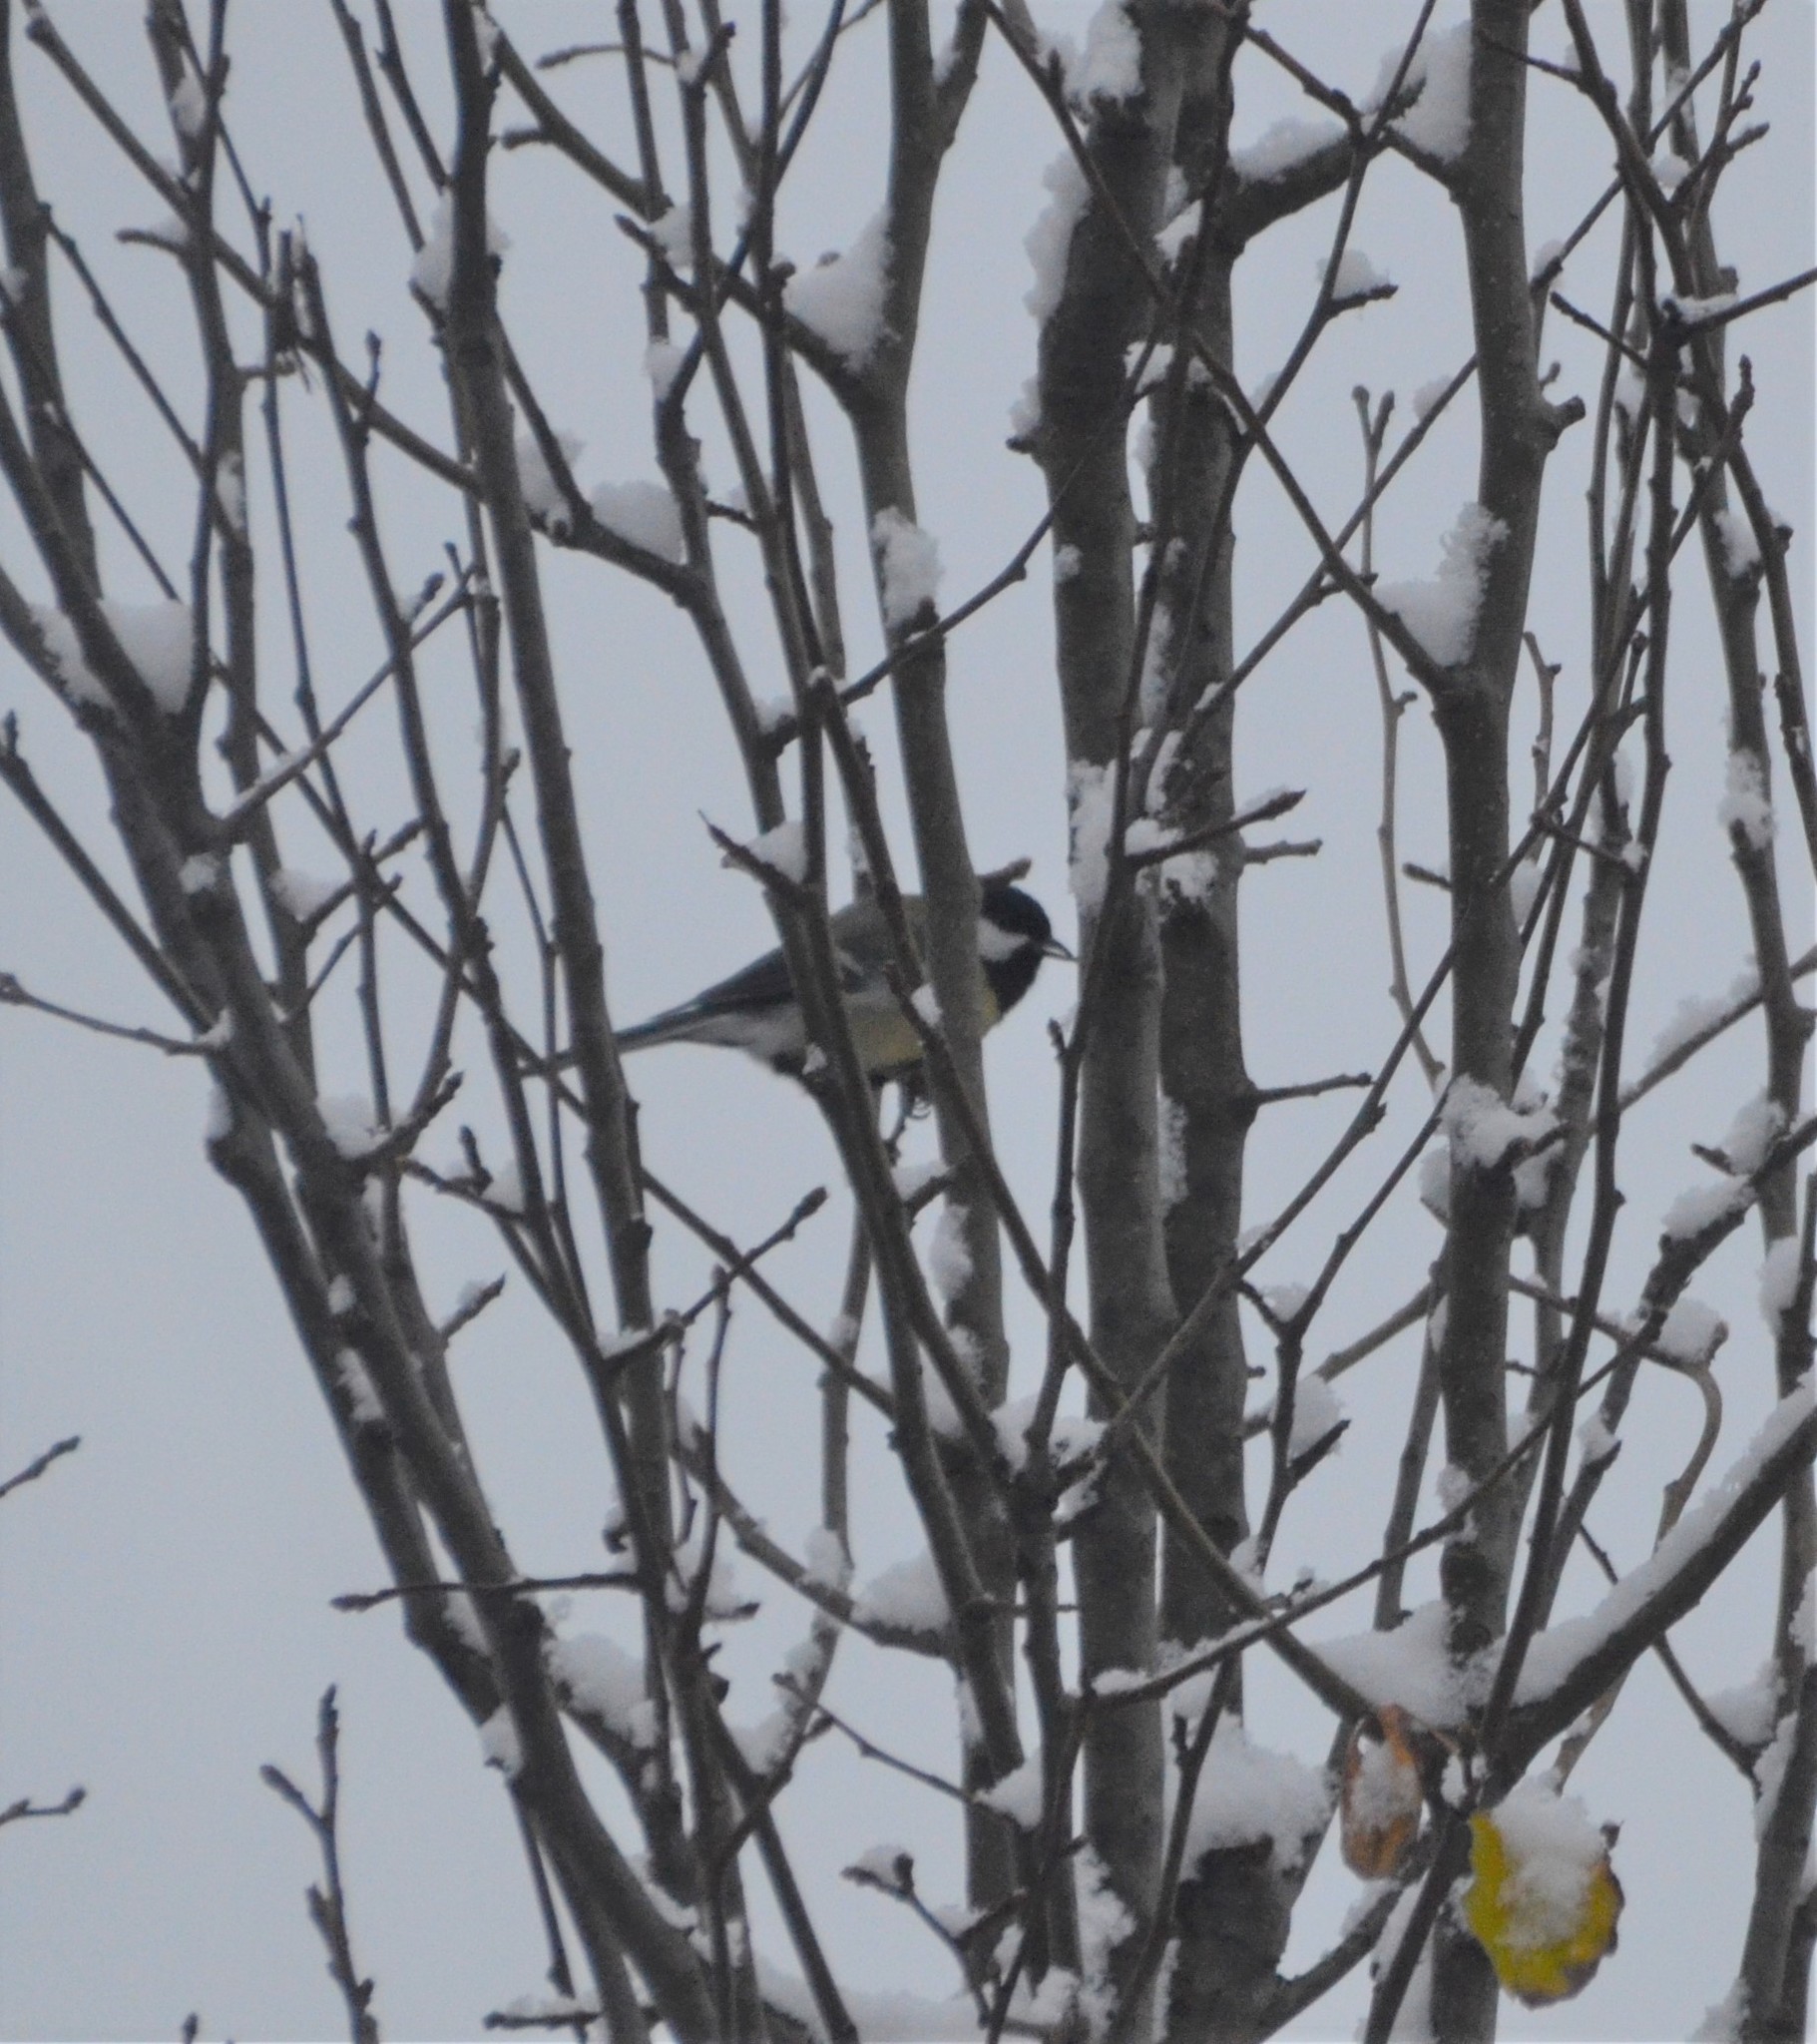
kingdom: Animalia
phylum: Chordata
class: Aves
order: Passeriformes
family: Paridae
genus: Parus
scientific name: Parus major
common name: Great tit
